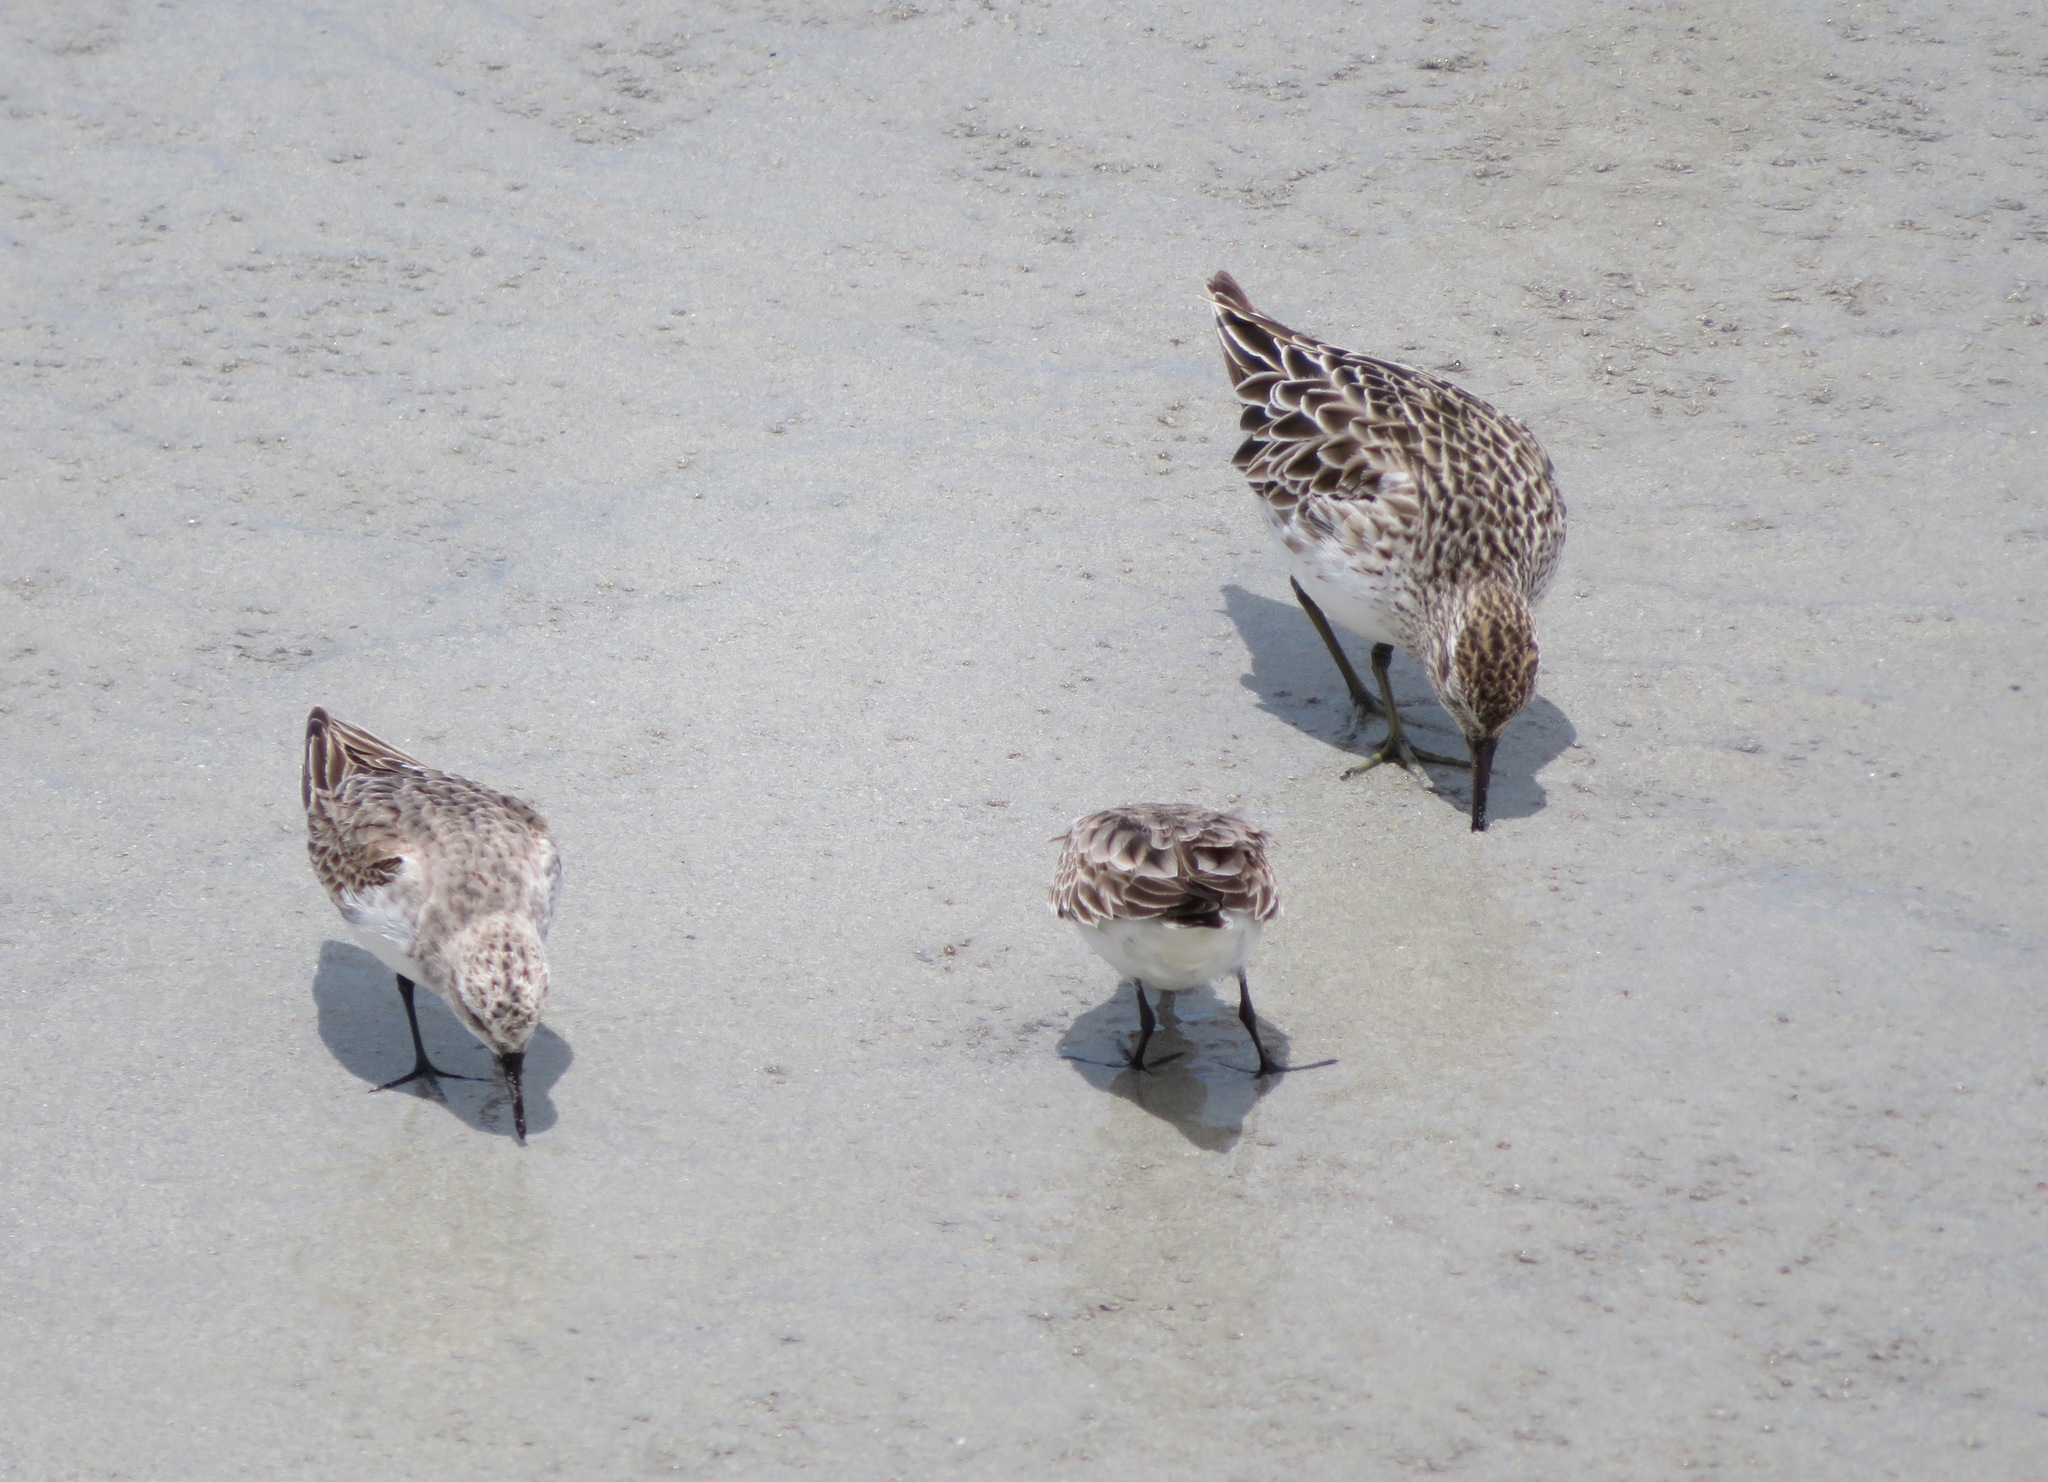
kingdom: Animalia
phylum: Chordata
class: Aves
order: Charadriiformes
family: Scolopacidae
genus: Calidris
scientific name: Calidris ruficollis
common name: Red-necked stint
